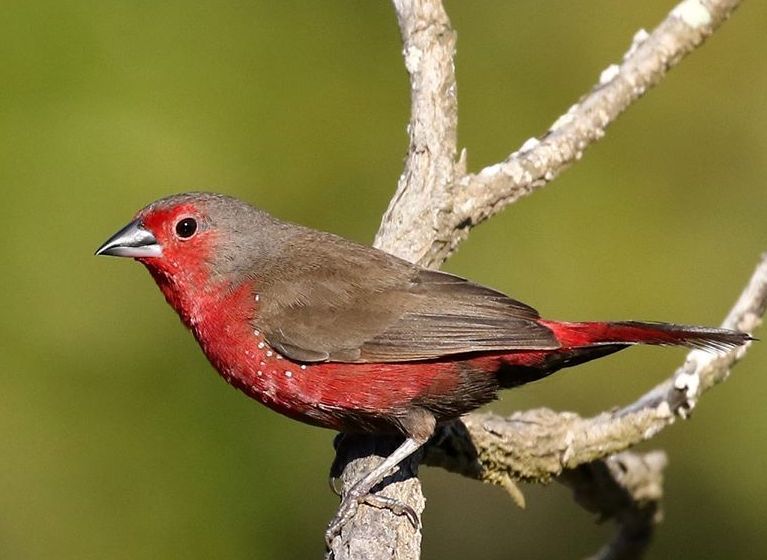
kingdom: Animalia
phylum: Chordata
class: Aves
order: Passeriformes
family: Estrildidae
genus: Lagonosticta
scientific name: Lagonosticta rubricata
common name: African firefinch
